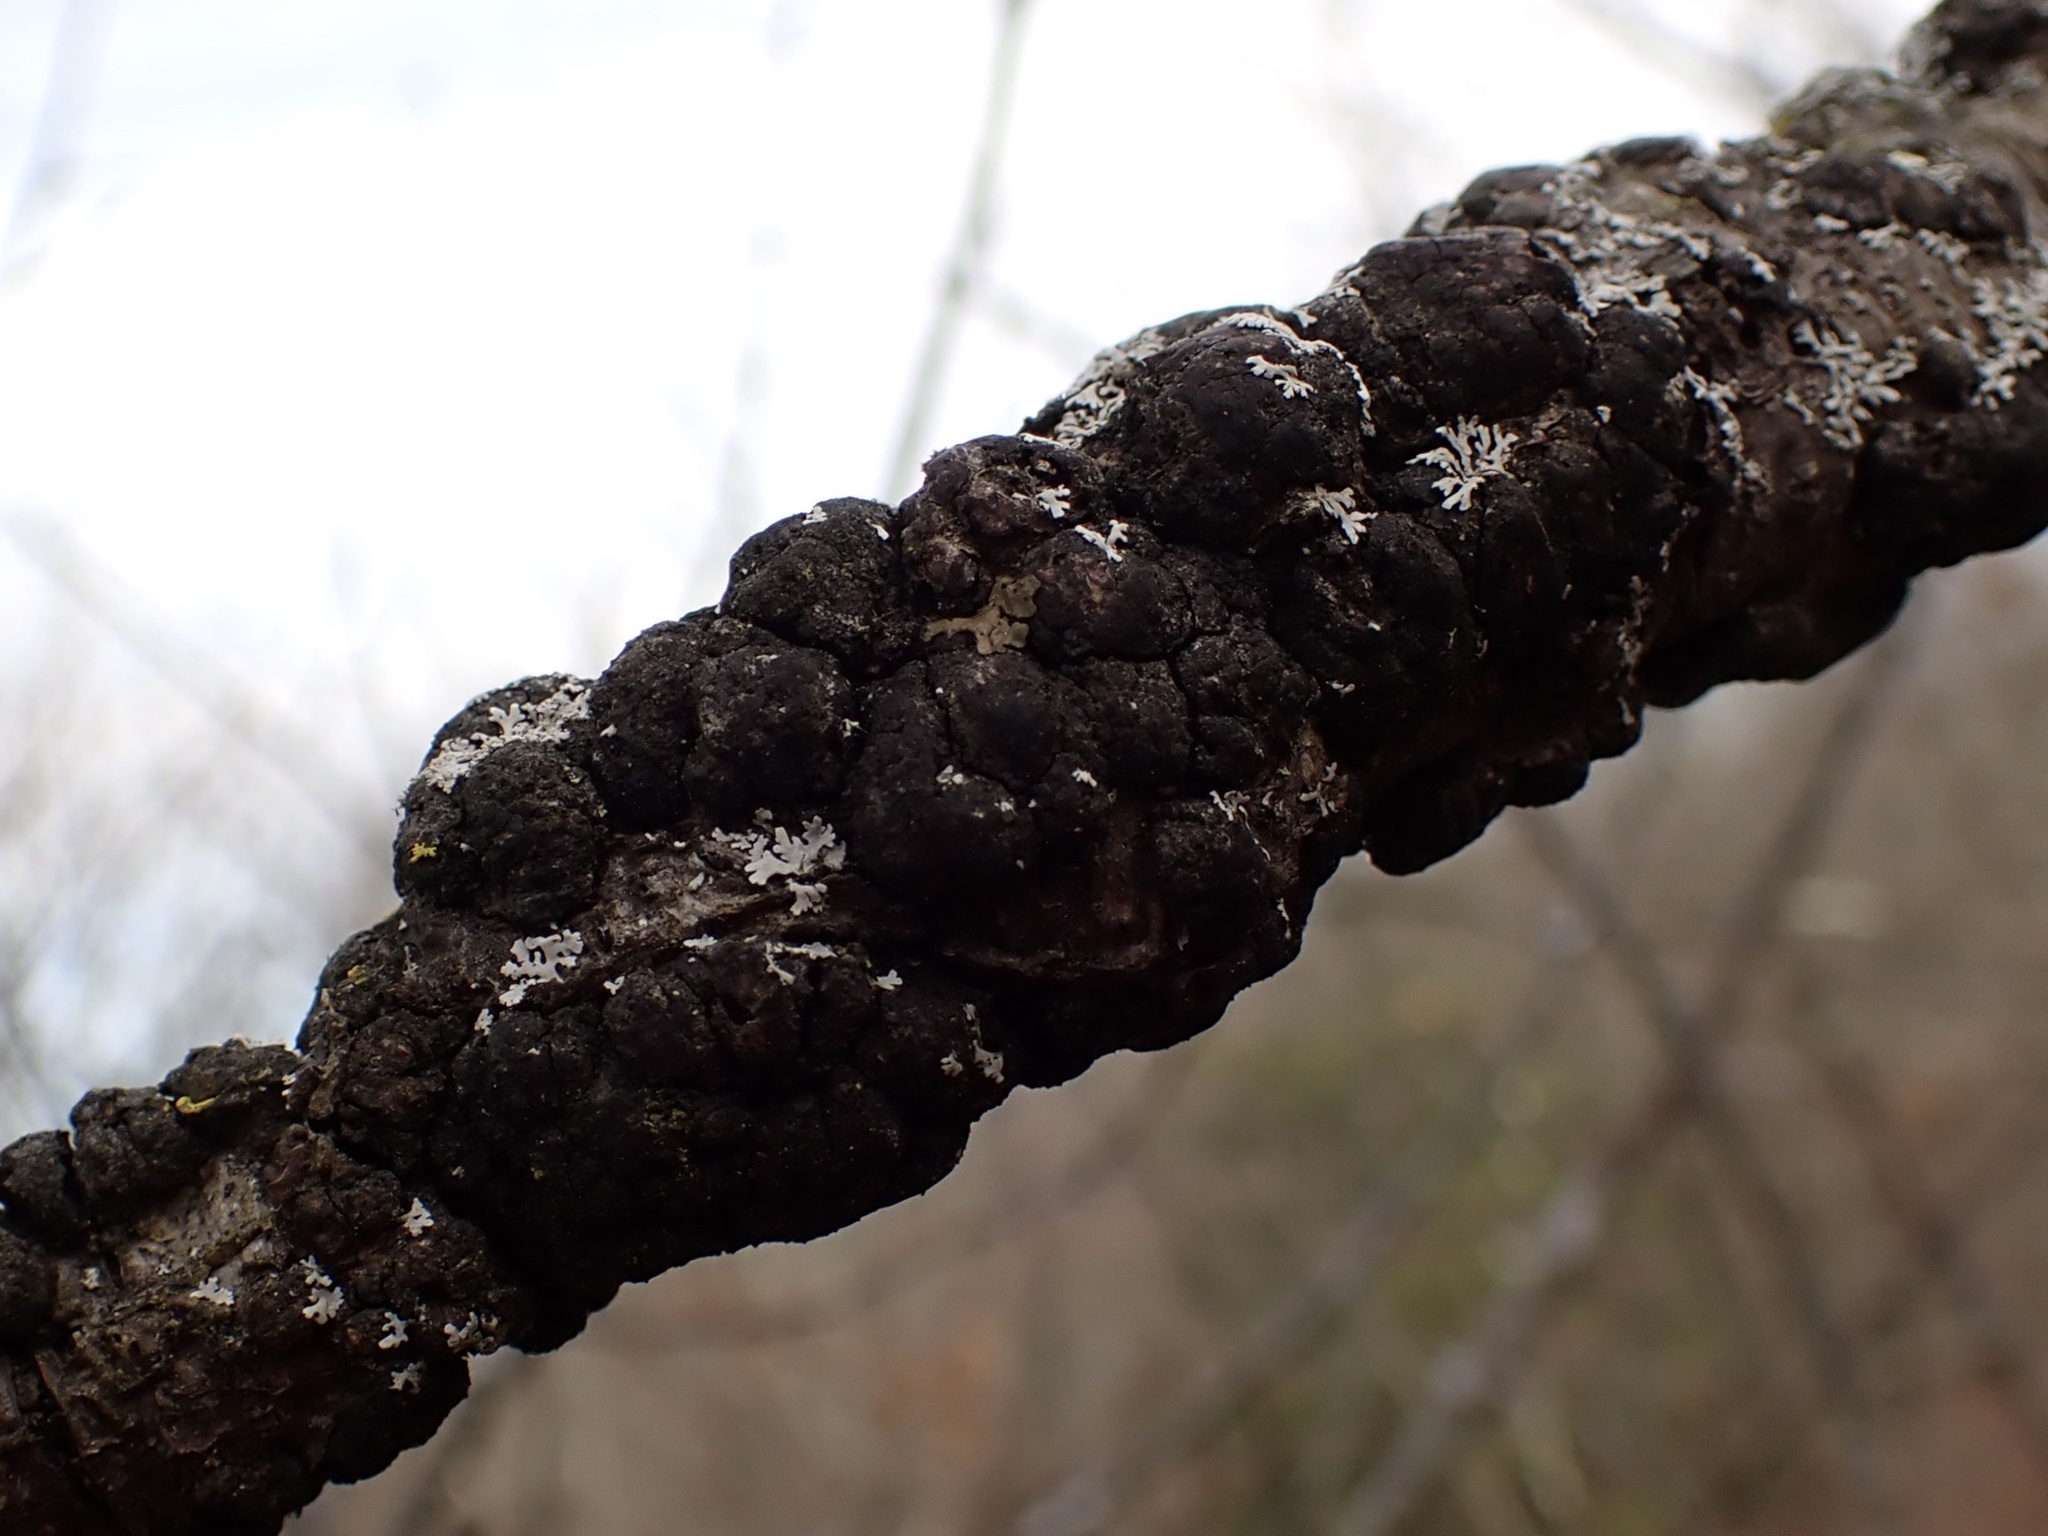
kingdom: Fungi
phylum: Ascomycota
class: Dothideomycetes
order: Venturiales
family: Venturiaceae
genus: Apiosporina
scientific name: Apiosporina morbosa
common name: Black knot
